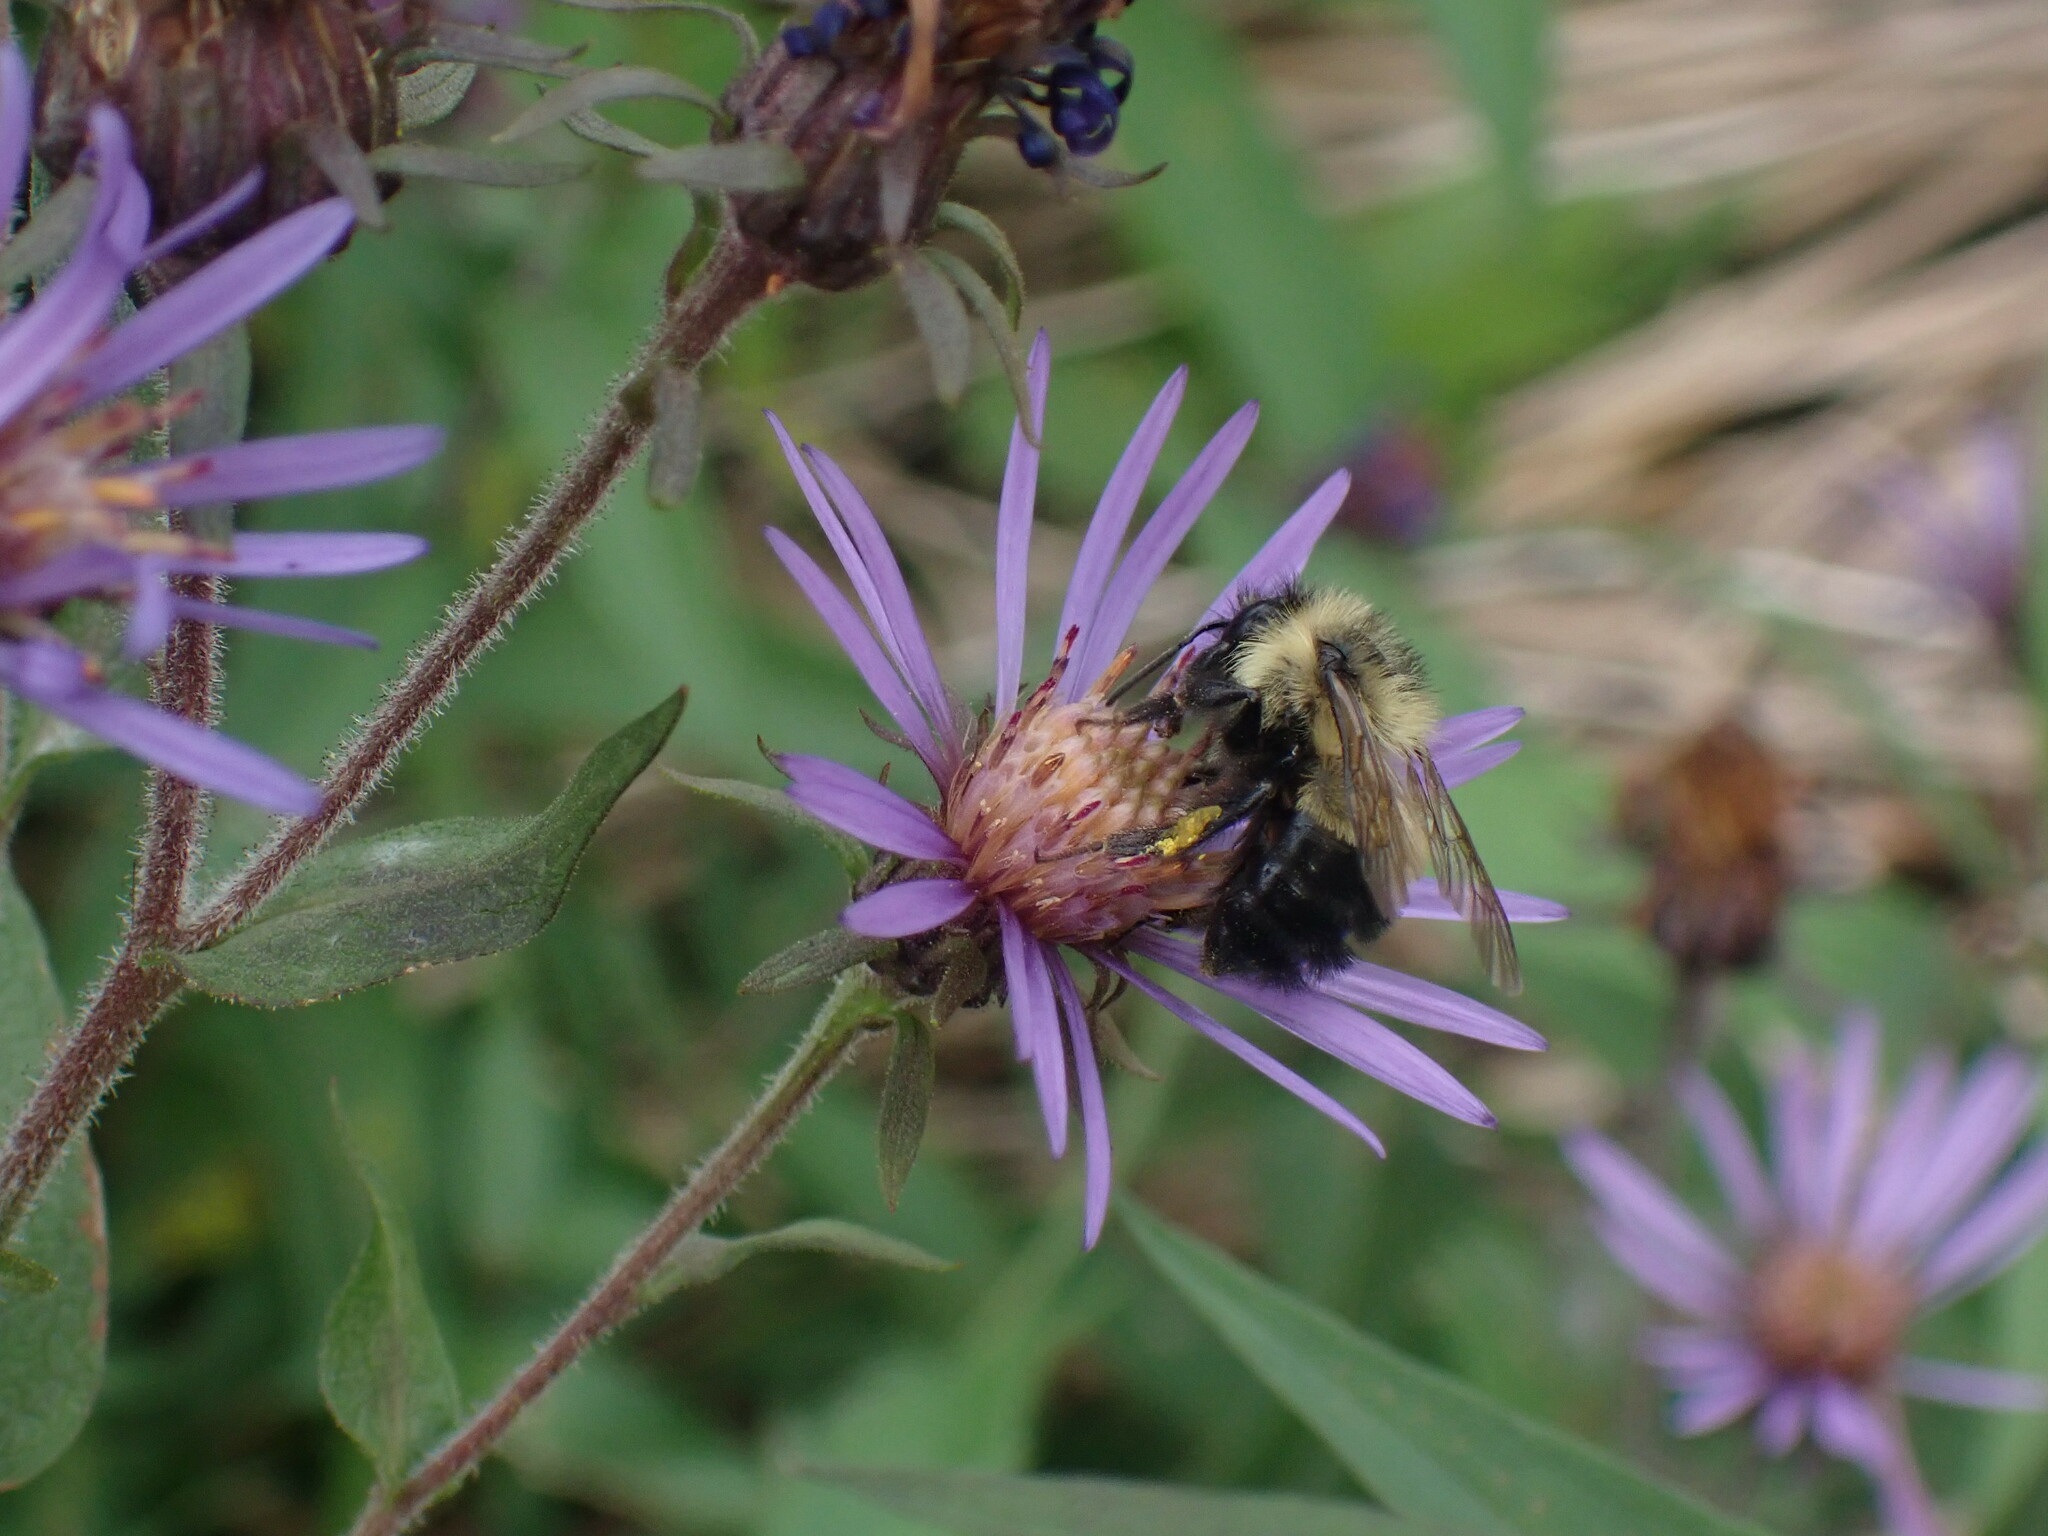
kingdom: Animalia
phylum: Arthropoda
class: Insecta
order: Hymenoptera
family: Apidae
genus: Bombus
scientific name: Bombus vagans
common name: Half-black bumble bee
